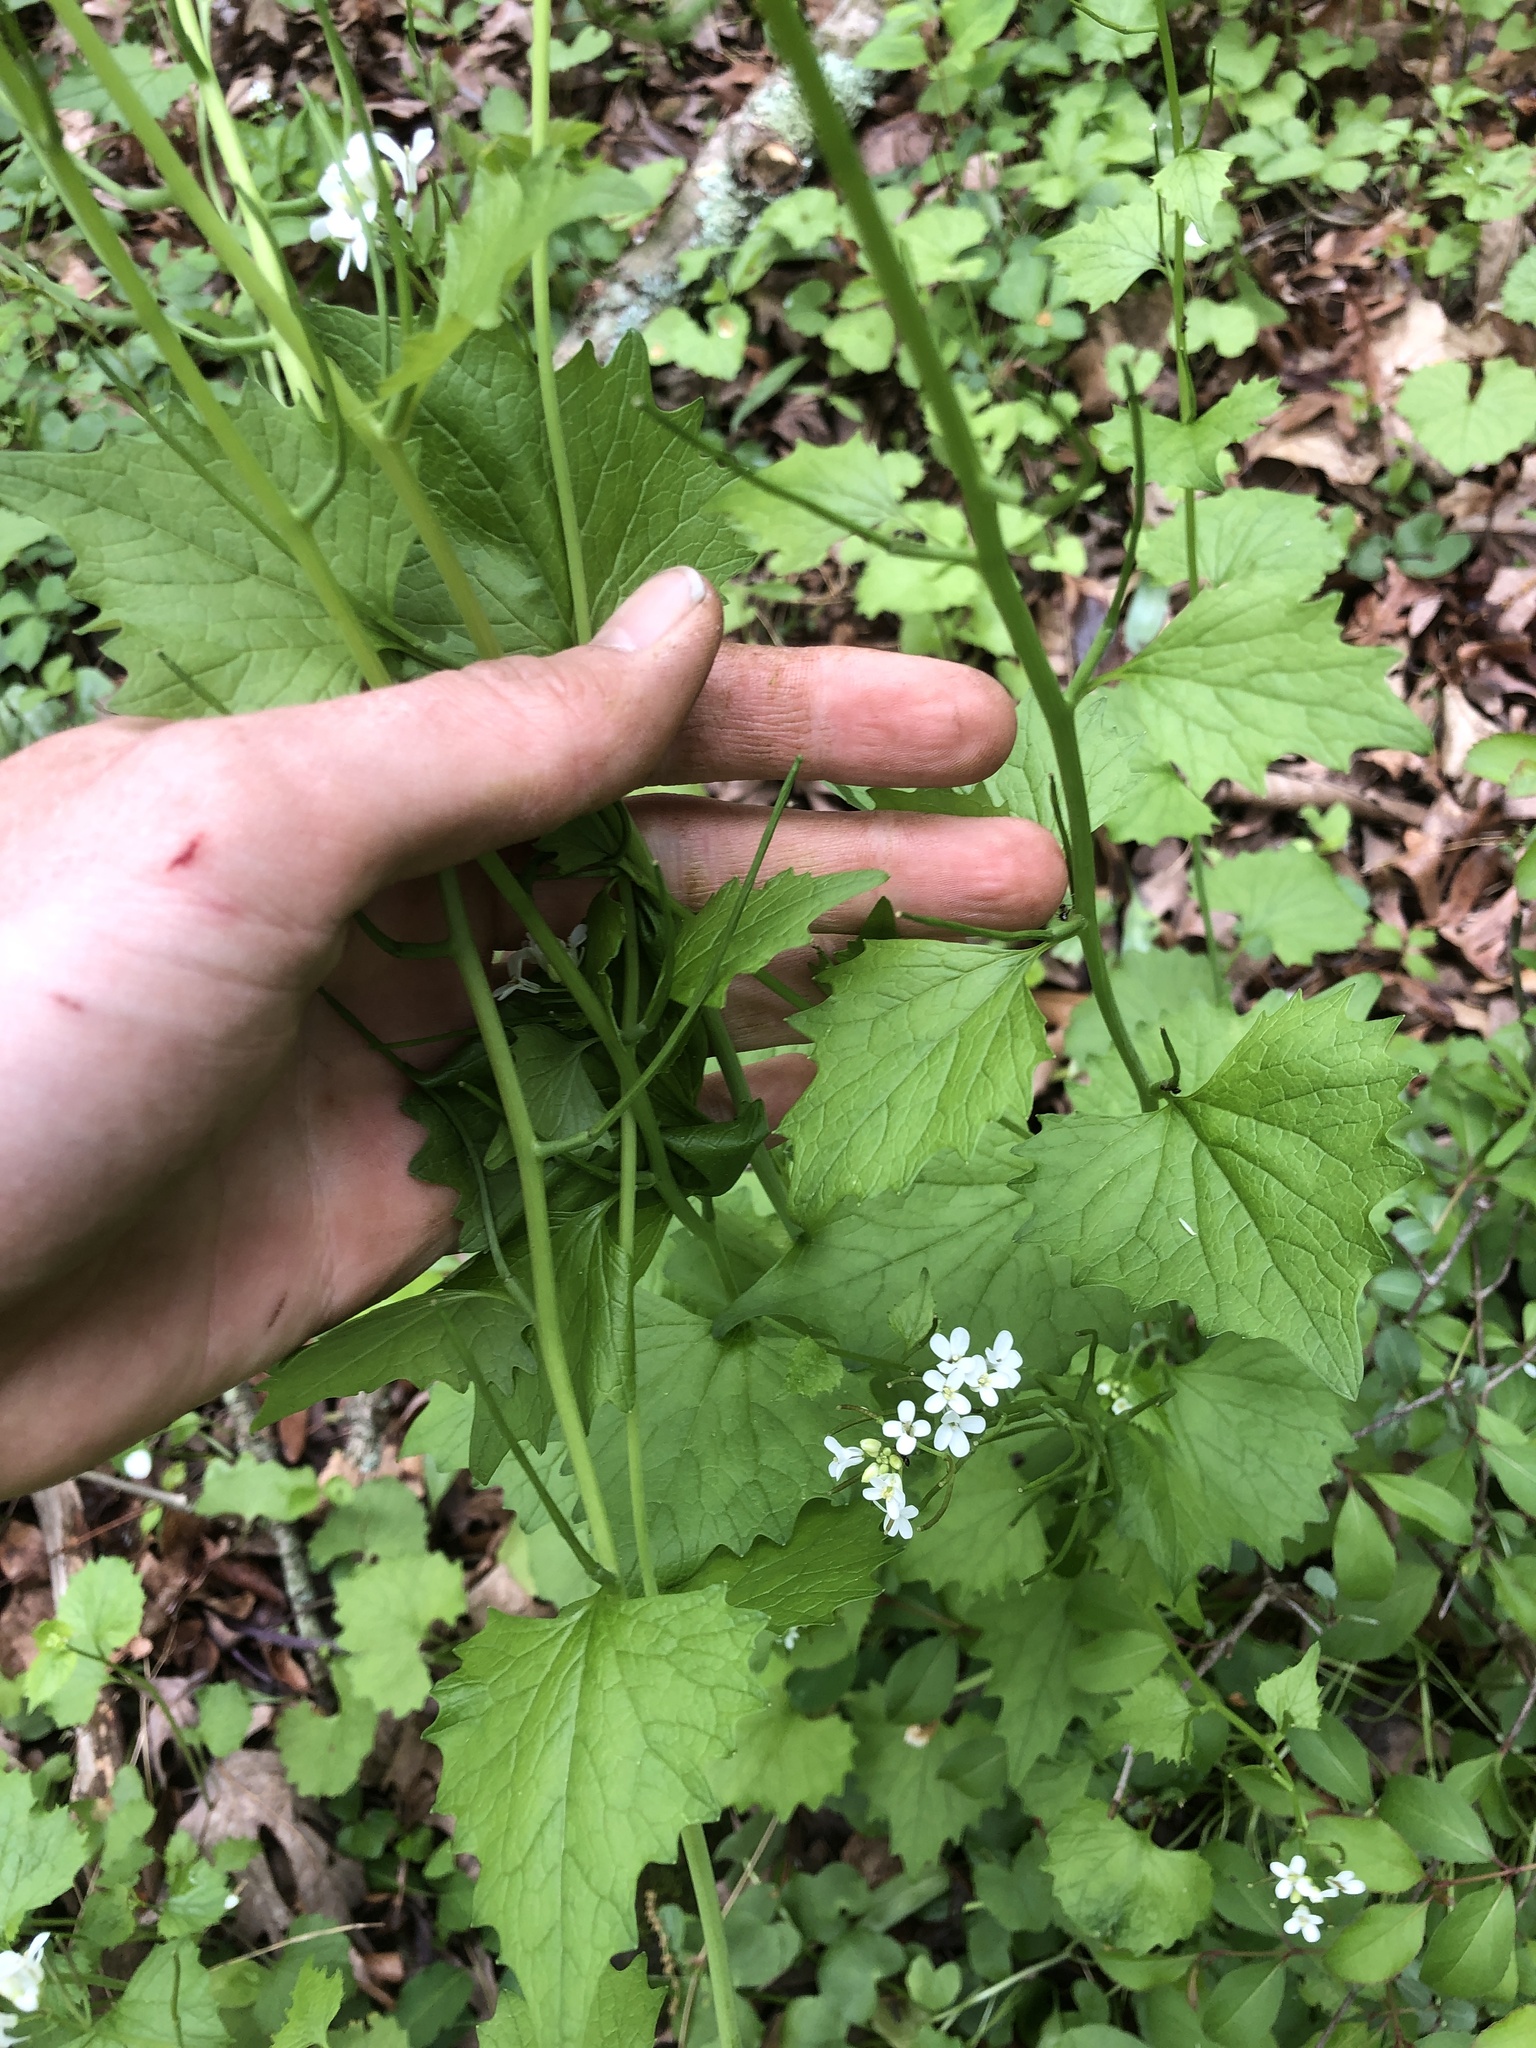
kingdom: Plantae
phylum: Tracheophyta
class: Magnoliopsida
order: Brassicales
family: Brassicaceae
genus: Alliaria
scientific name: Alliaria petiolata
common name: Garlic mustard
